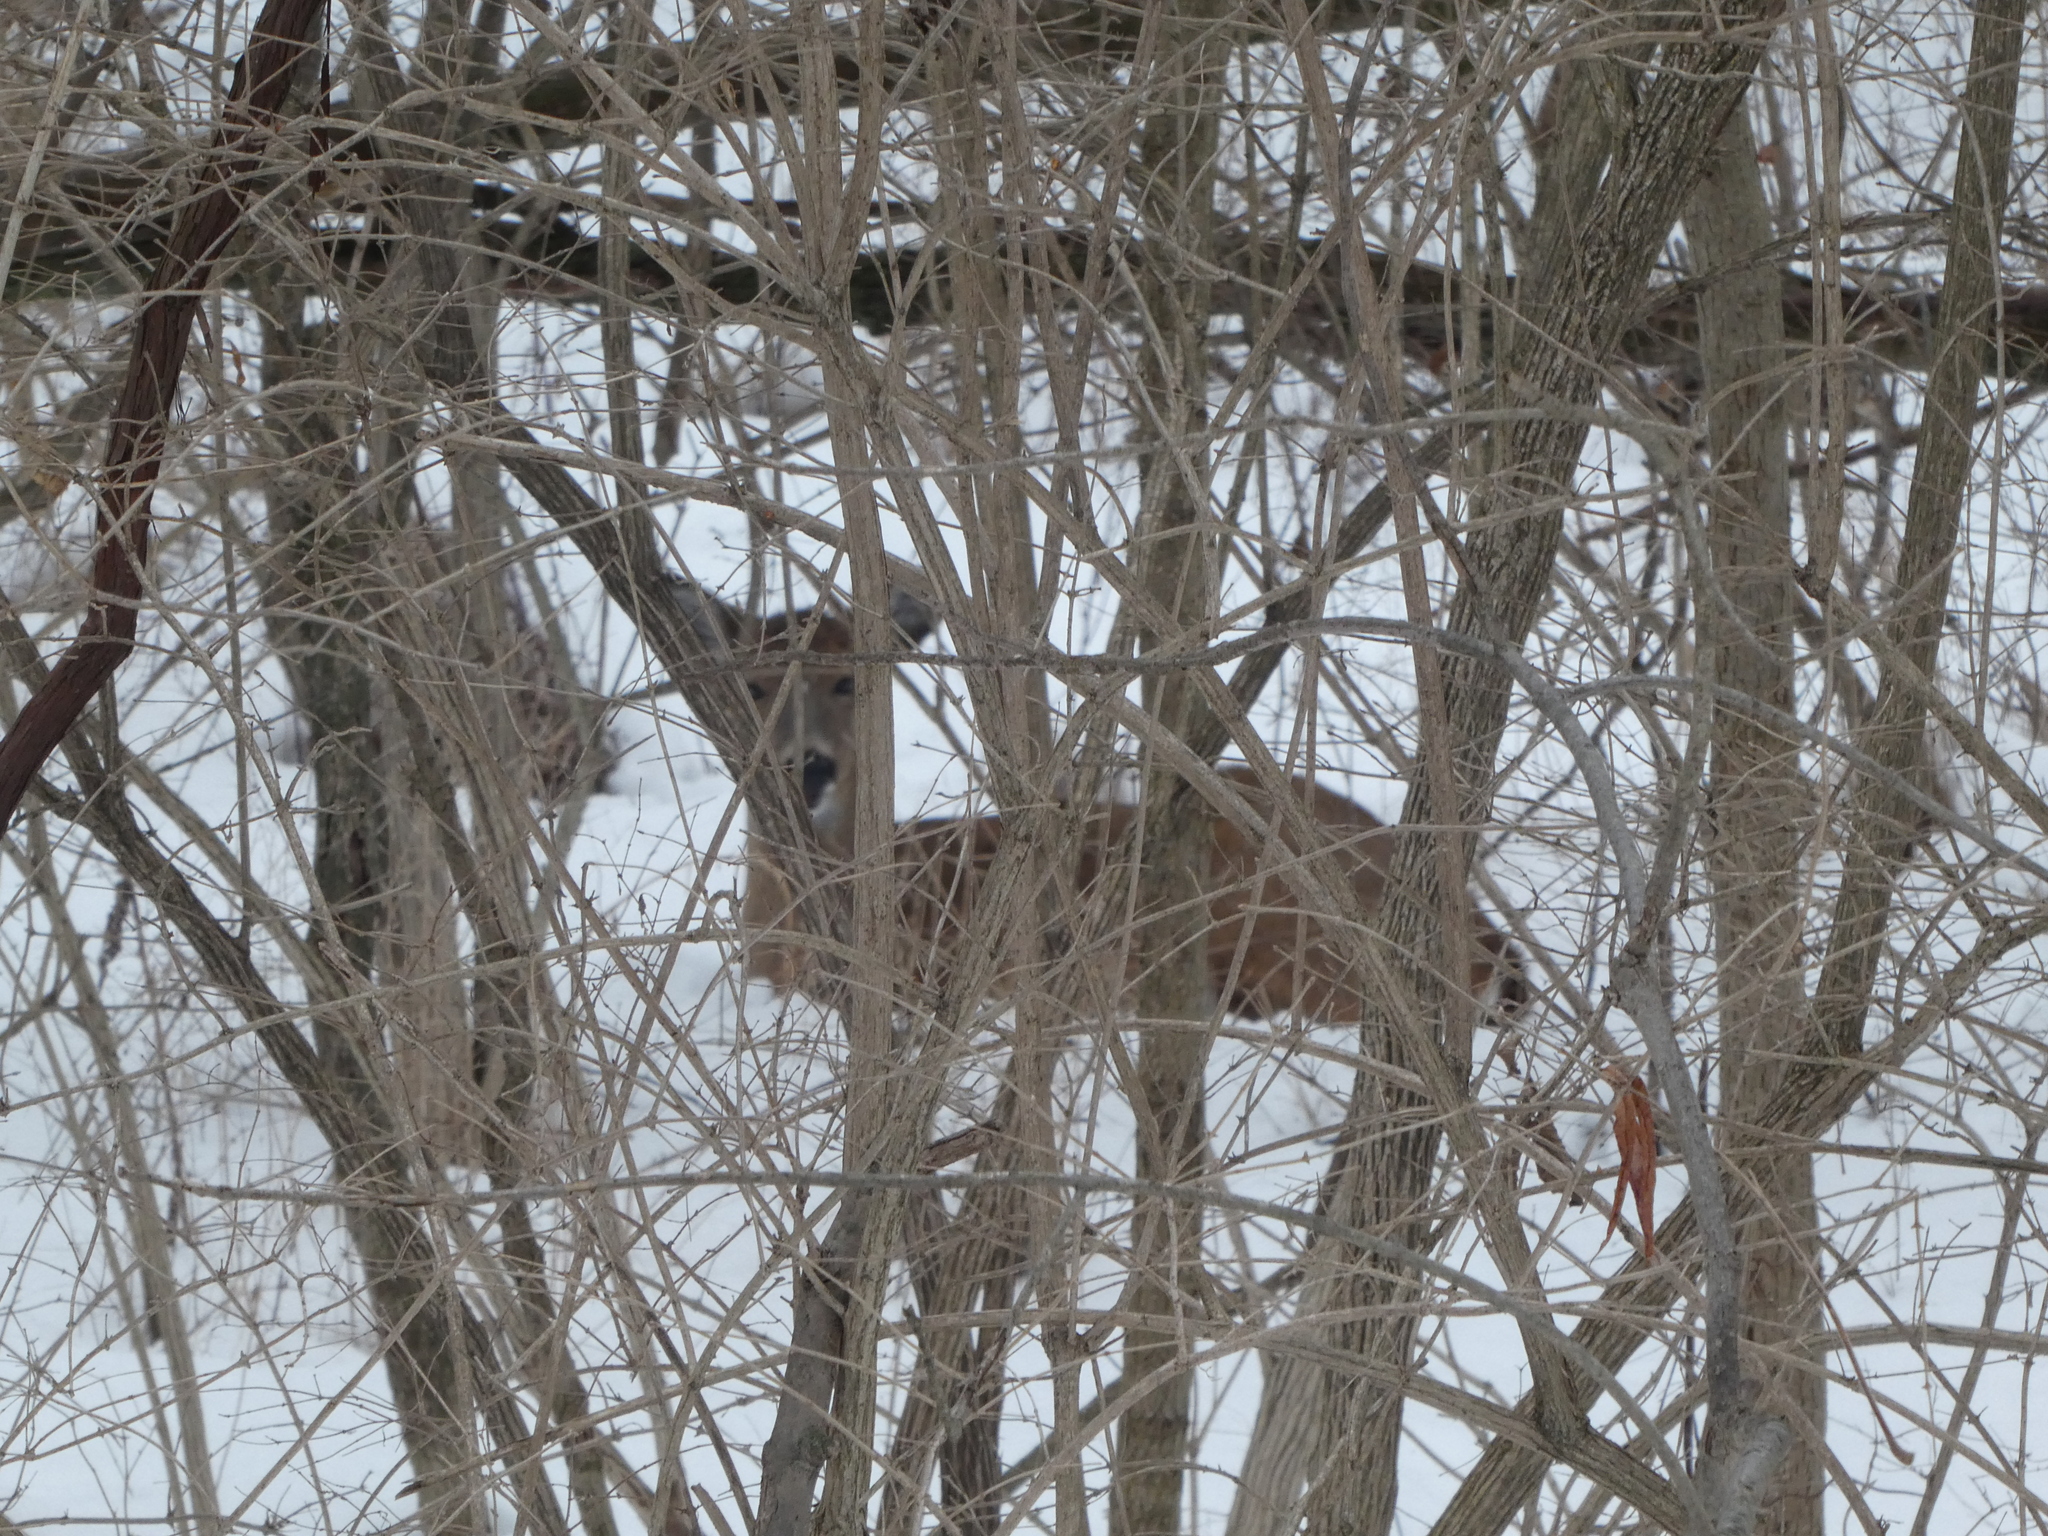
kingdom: Animalia
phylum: Chordata
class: Mammalia
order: Artiodactyla
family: Cervidae
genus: Odocoileus
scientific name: Odocoileus virginianus
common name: White-tailed deer
